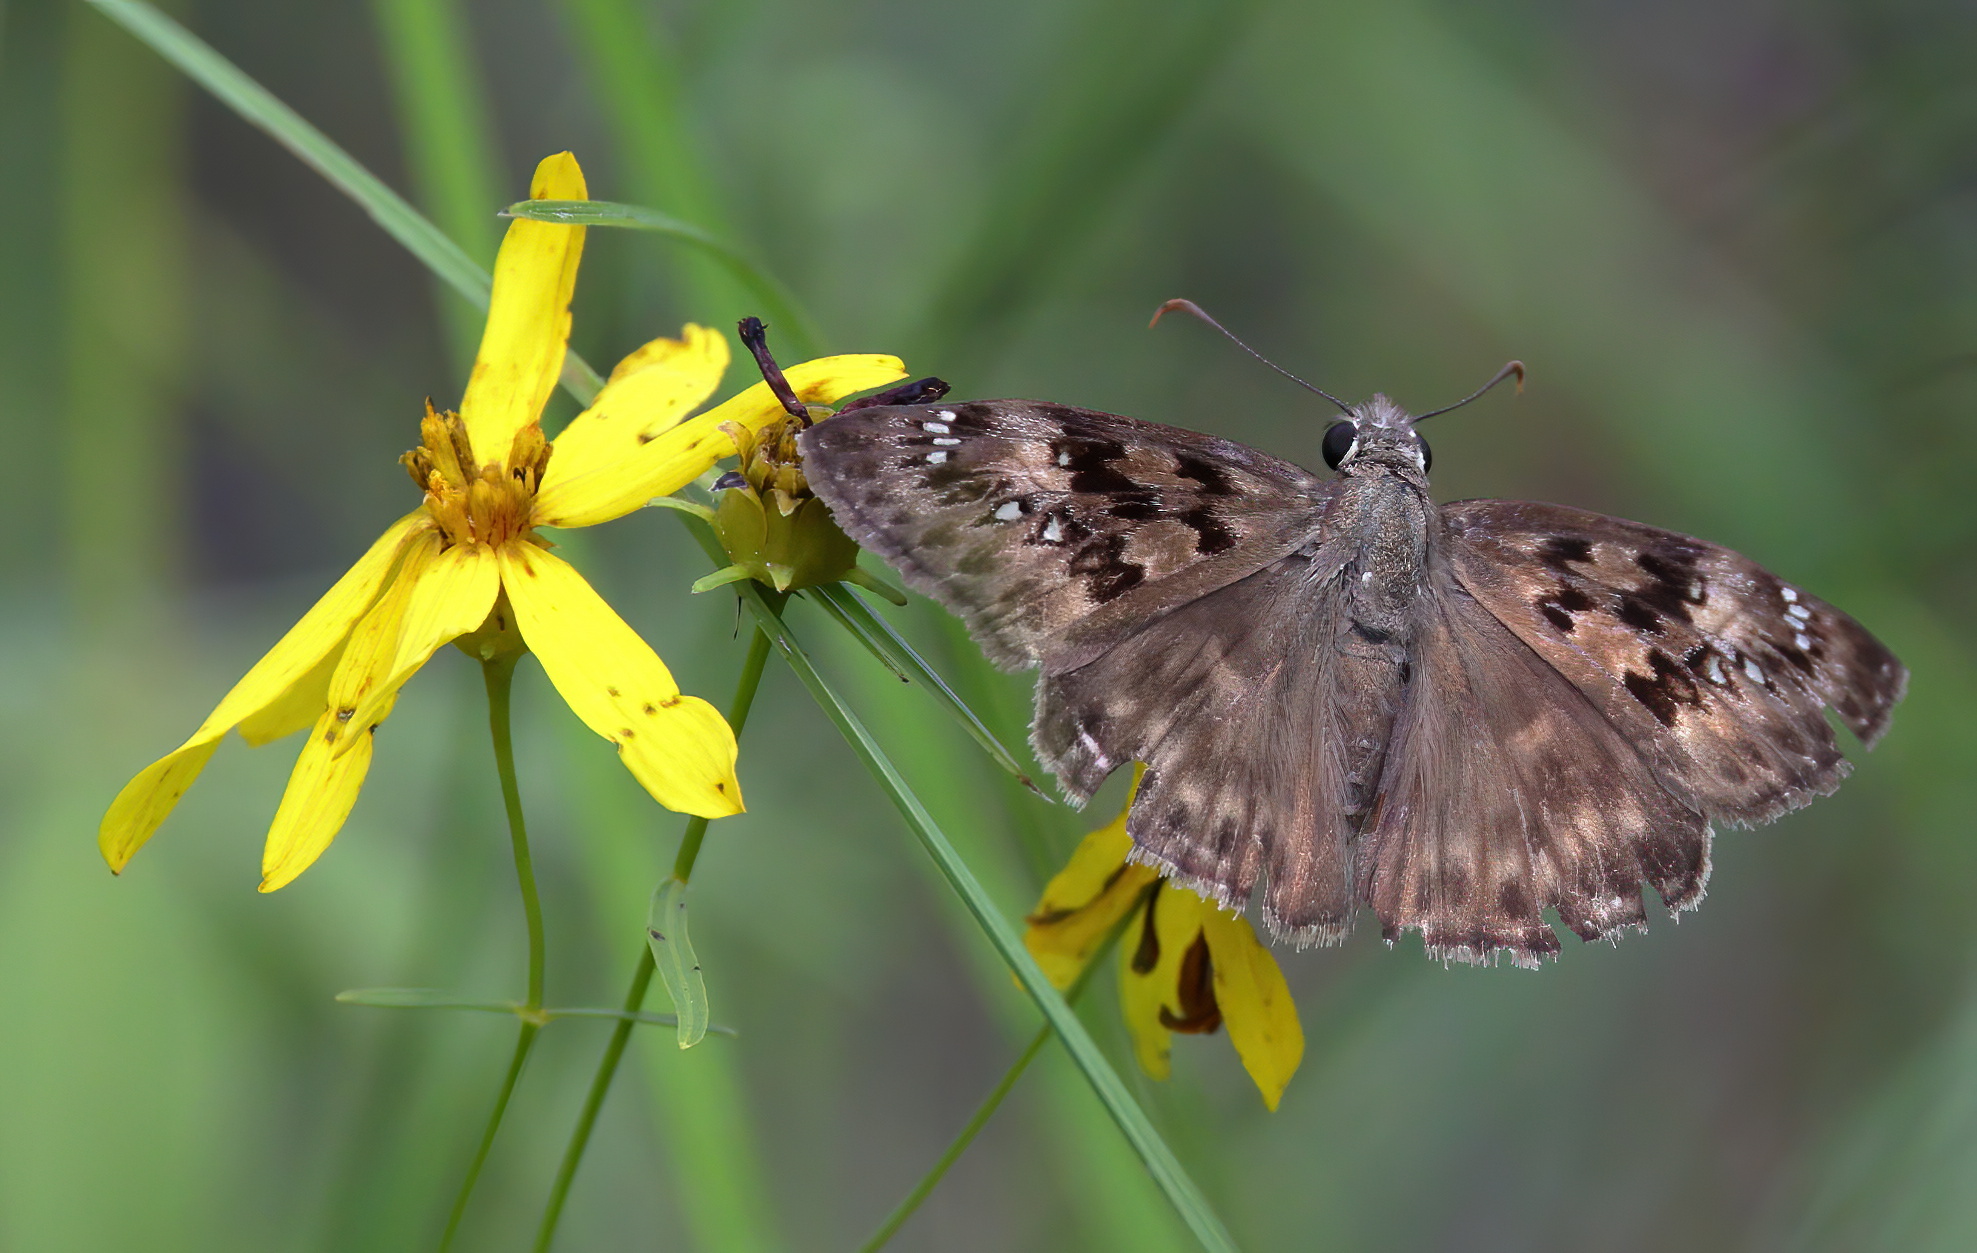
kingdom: Animalia
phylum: Arthropoda
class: Insecta
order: Lepidoptera
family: Hesperiidae
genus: Erynnis
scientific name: Erynnis horatius
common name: Horace's duskywing
